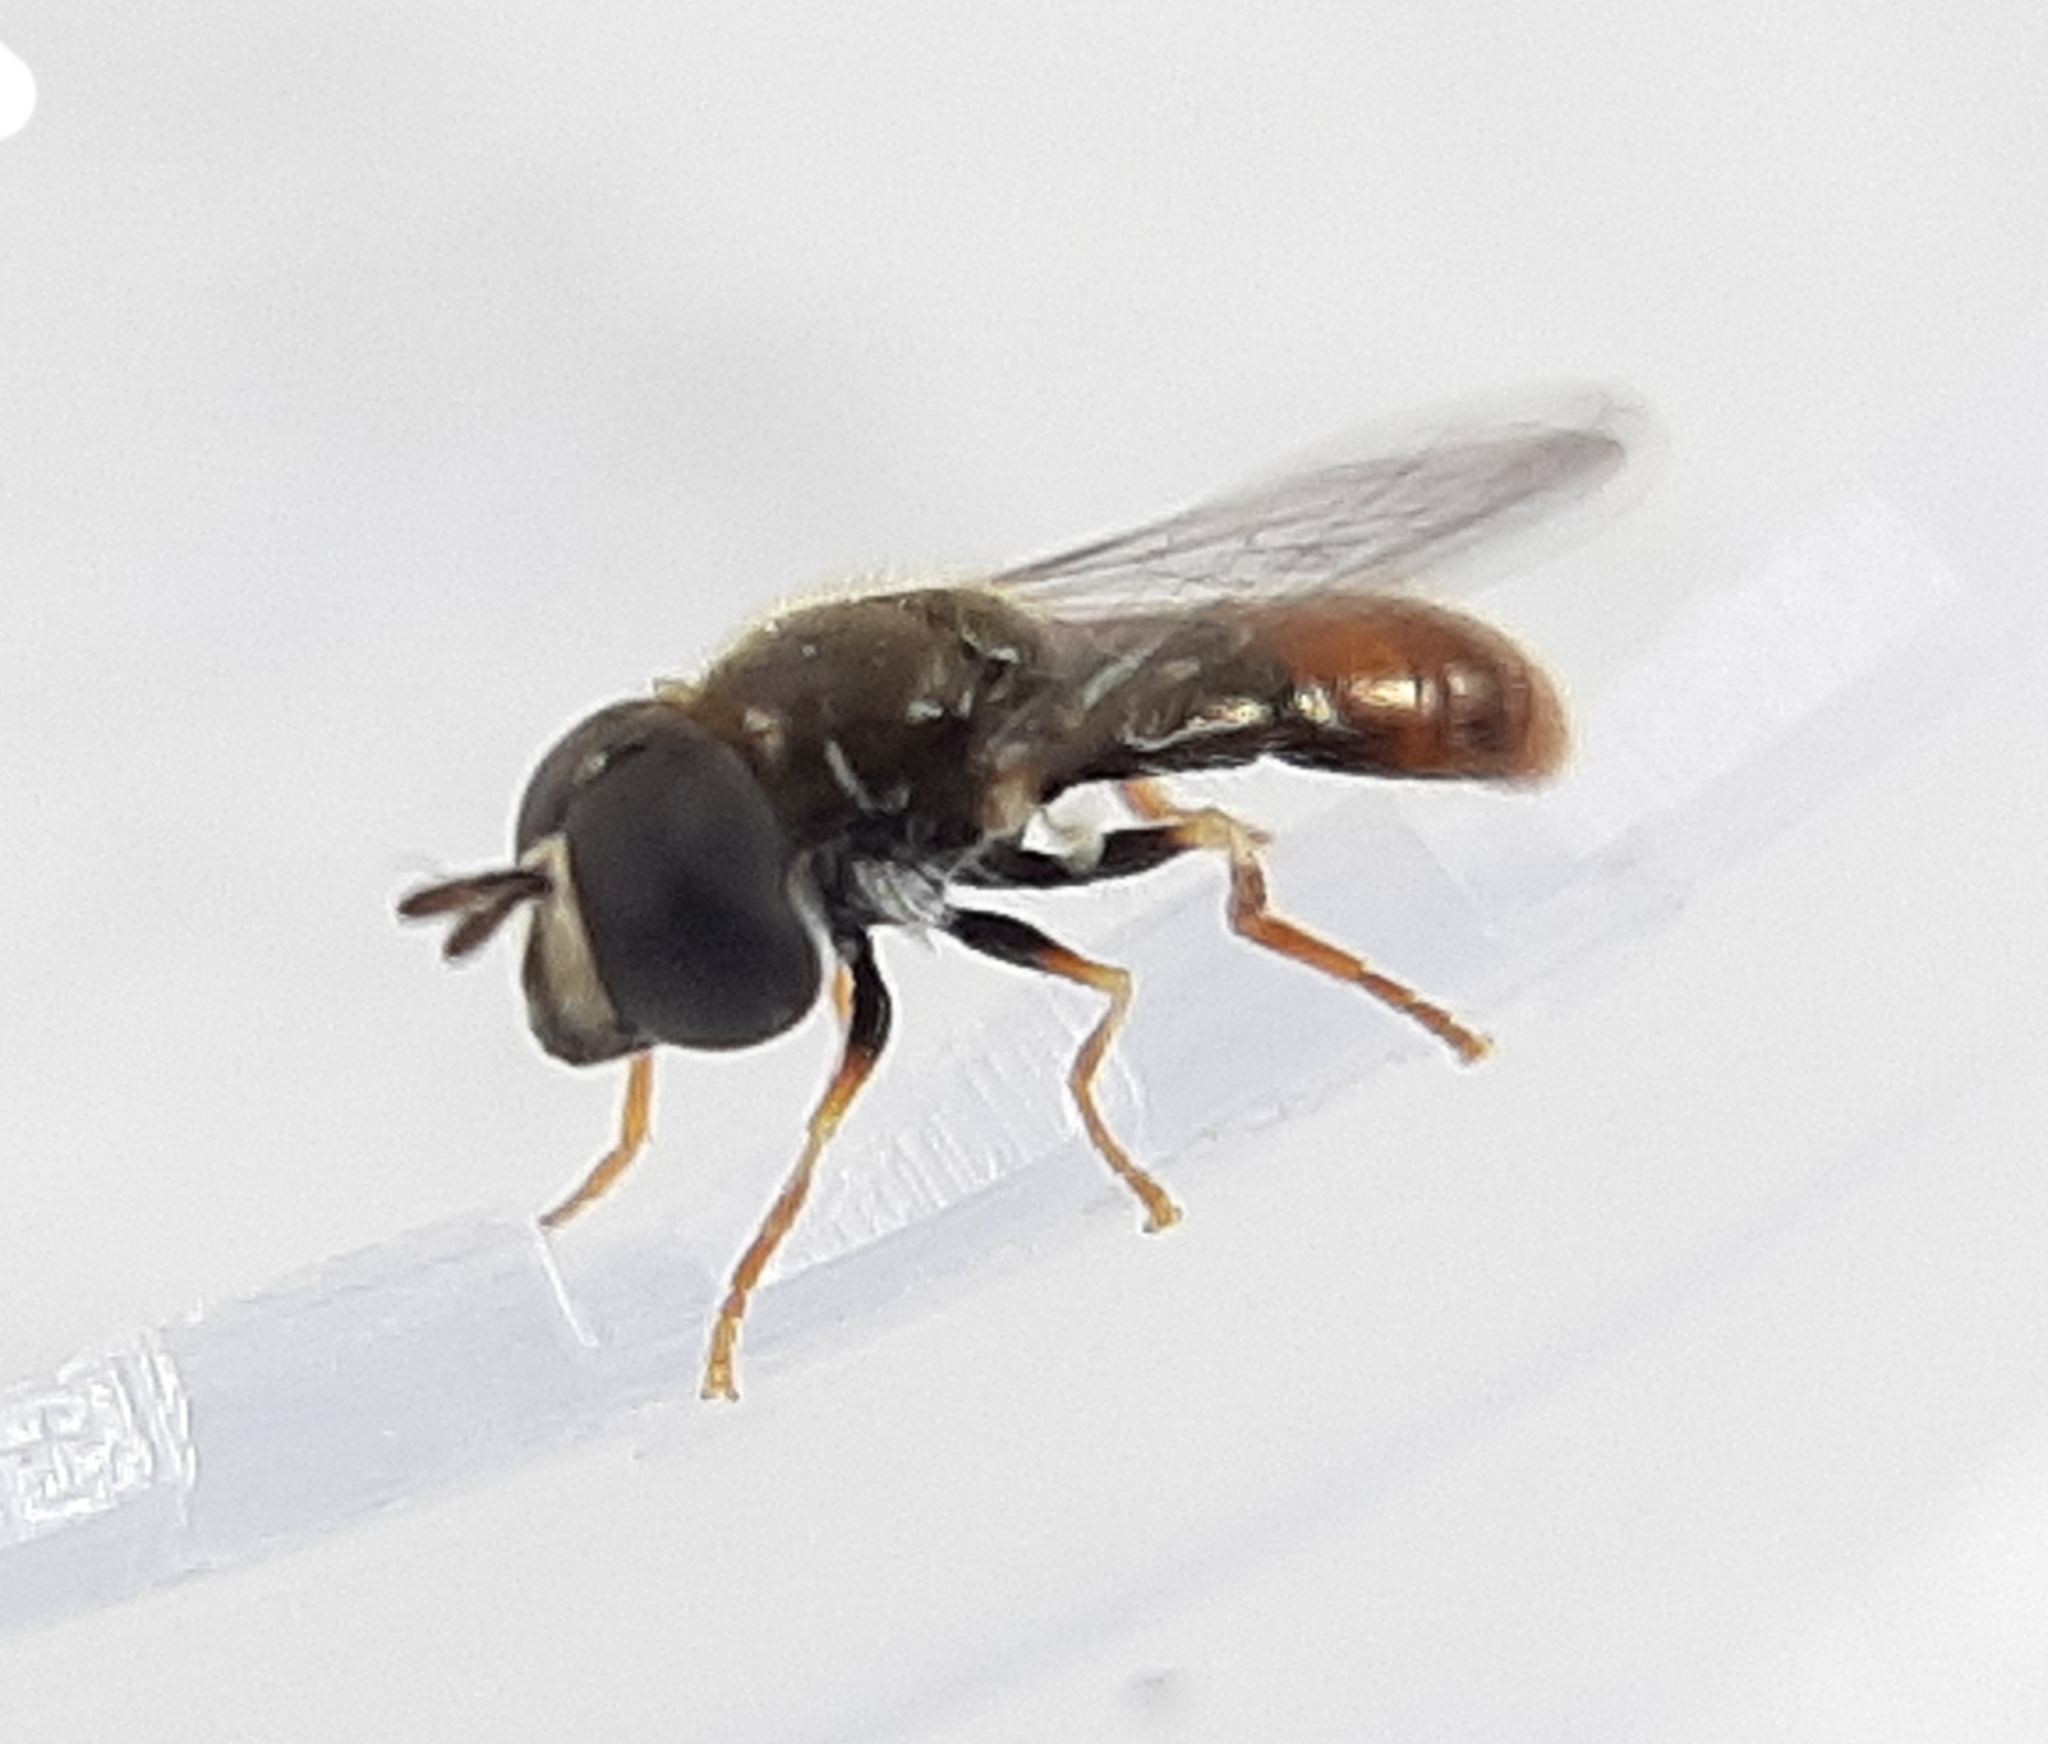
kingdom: Animalia
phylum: Arthropoda
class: Insecta
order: Diptera
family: Syrphidae
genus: Paragus
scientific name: Paragus haemorrhous
